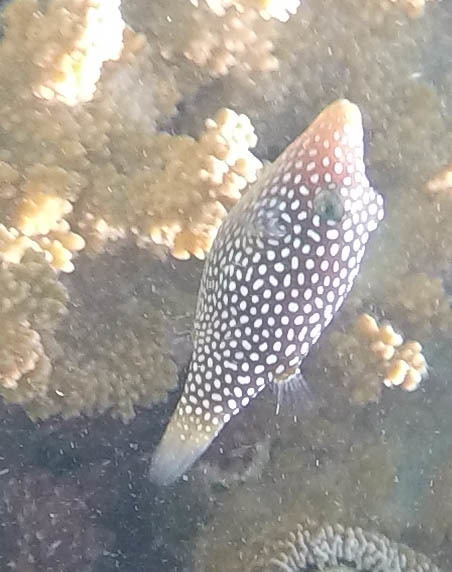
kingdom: Animalia
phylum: Chordata
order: Tetraodontiformes
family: Tetraodontidae
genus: Canthigaster
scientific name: Canthigaster jactator
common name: Hawaiian whitespotted toby
